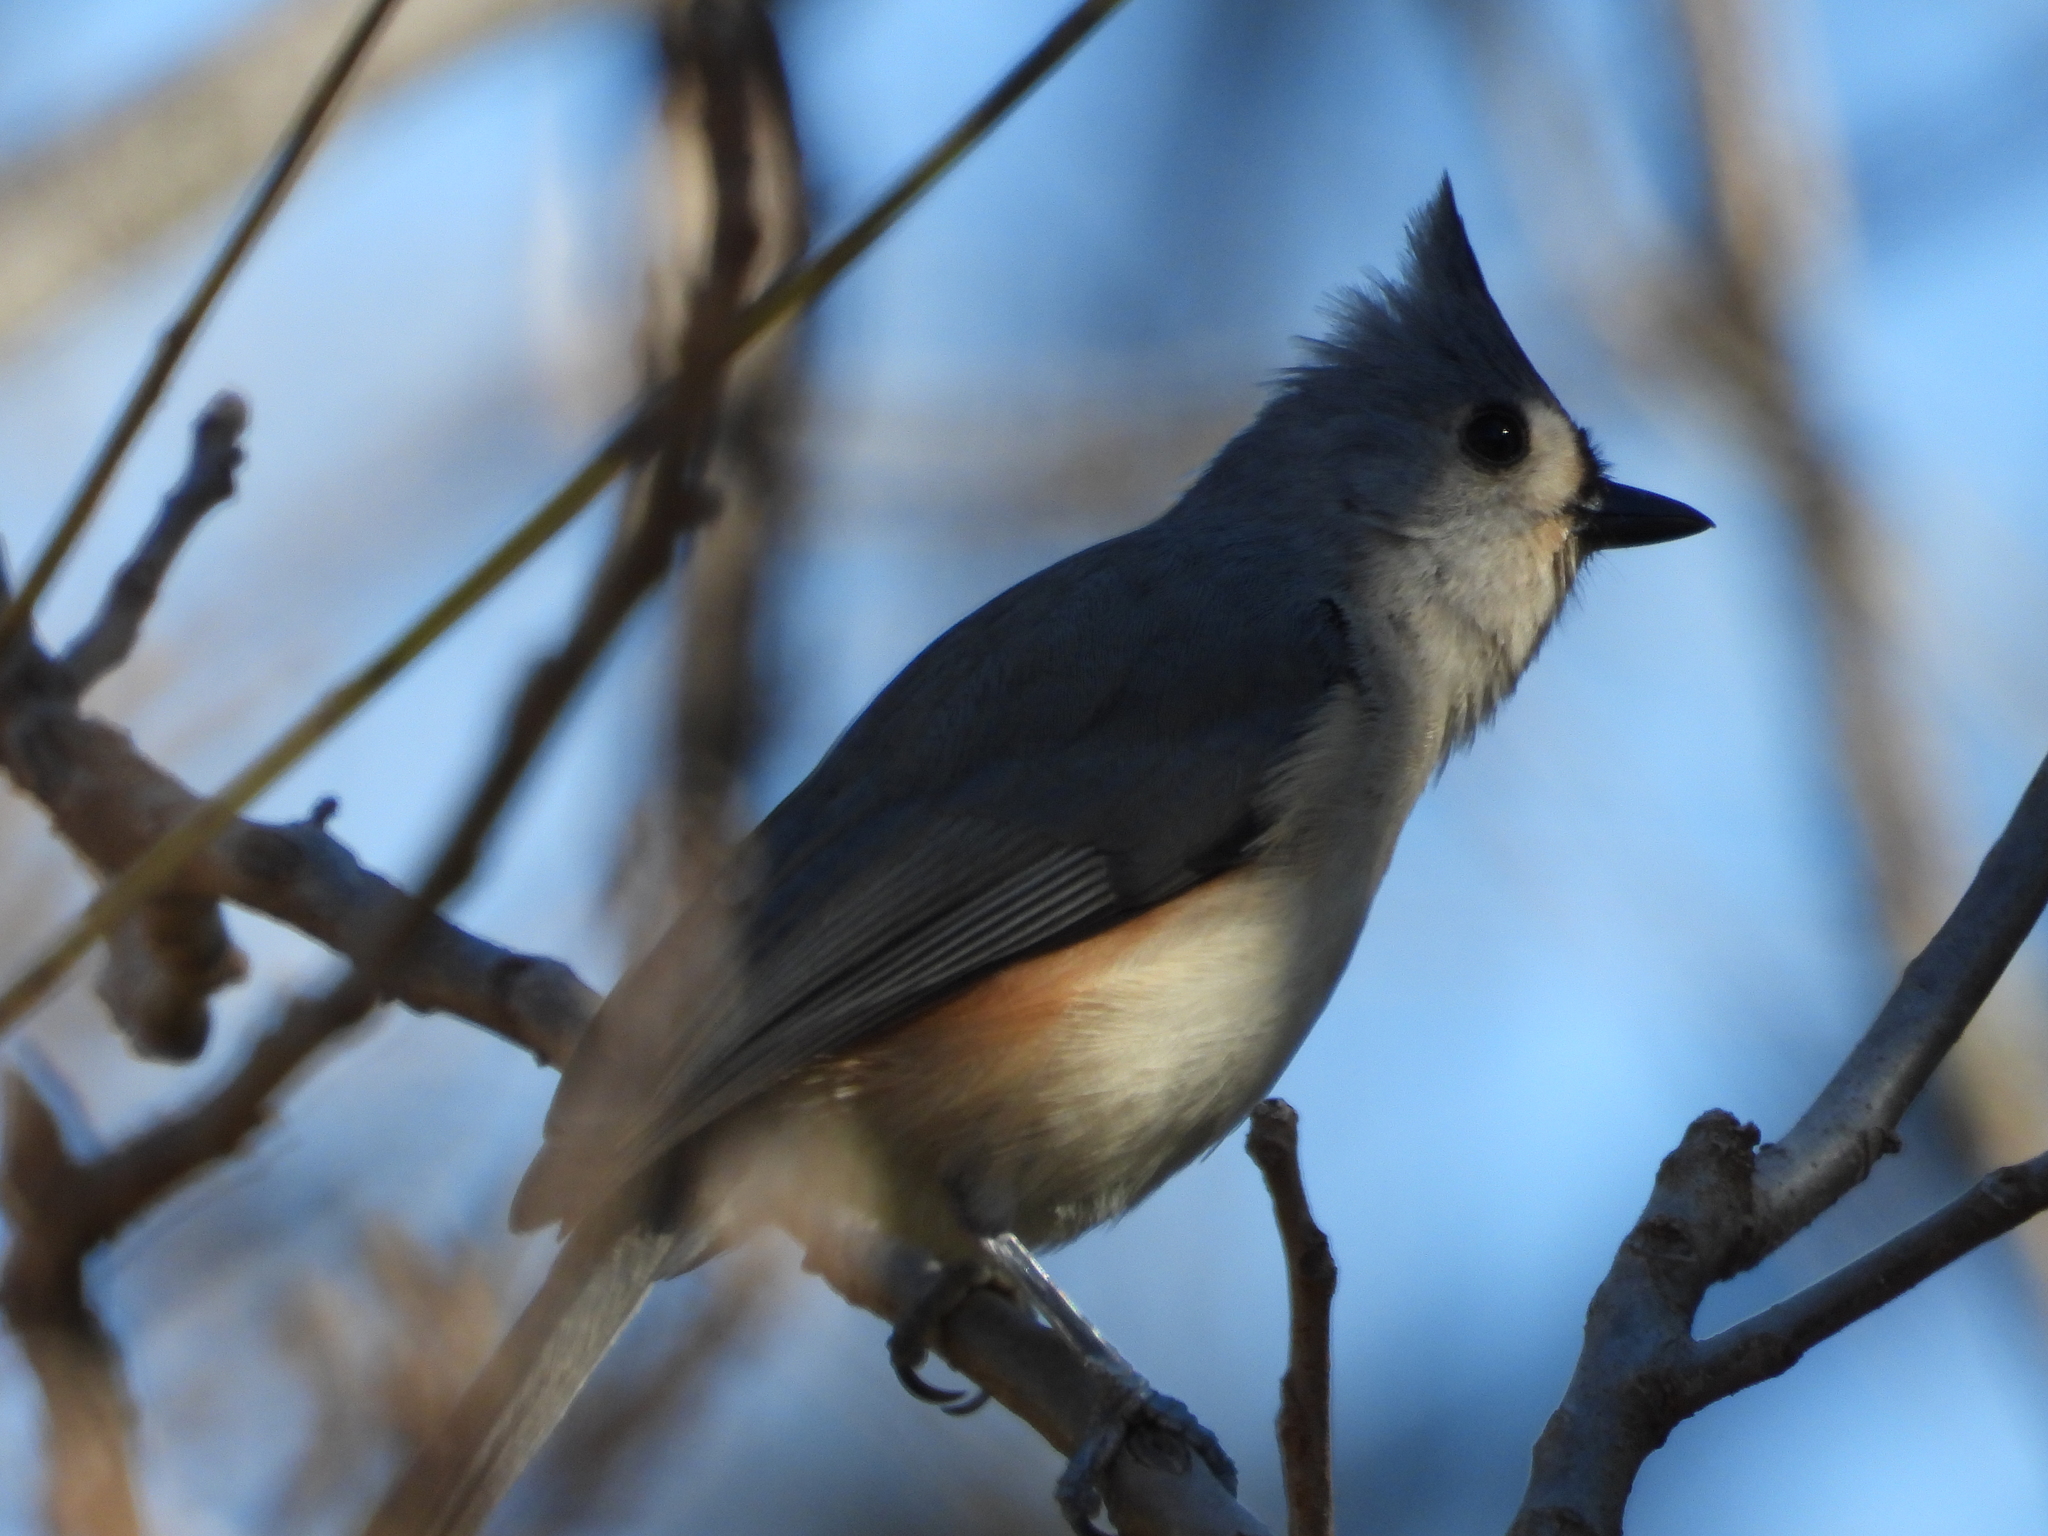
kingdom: Animalia
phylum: Chordata
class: Aves
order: Passeriformes
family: Paridae
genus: Baeolophus
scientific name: Baeolophus bicolor
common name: Tufted titmouse
